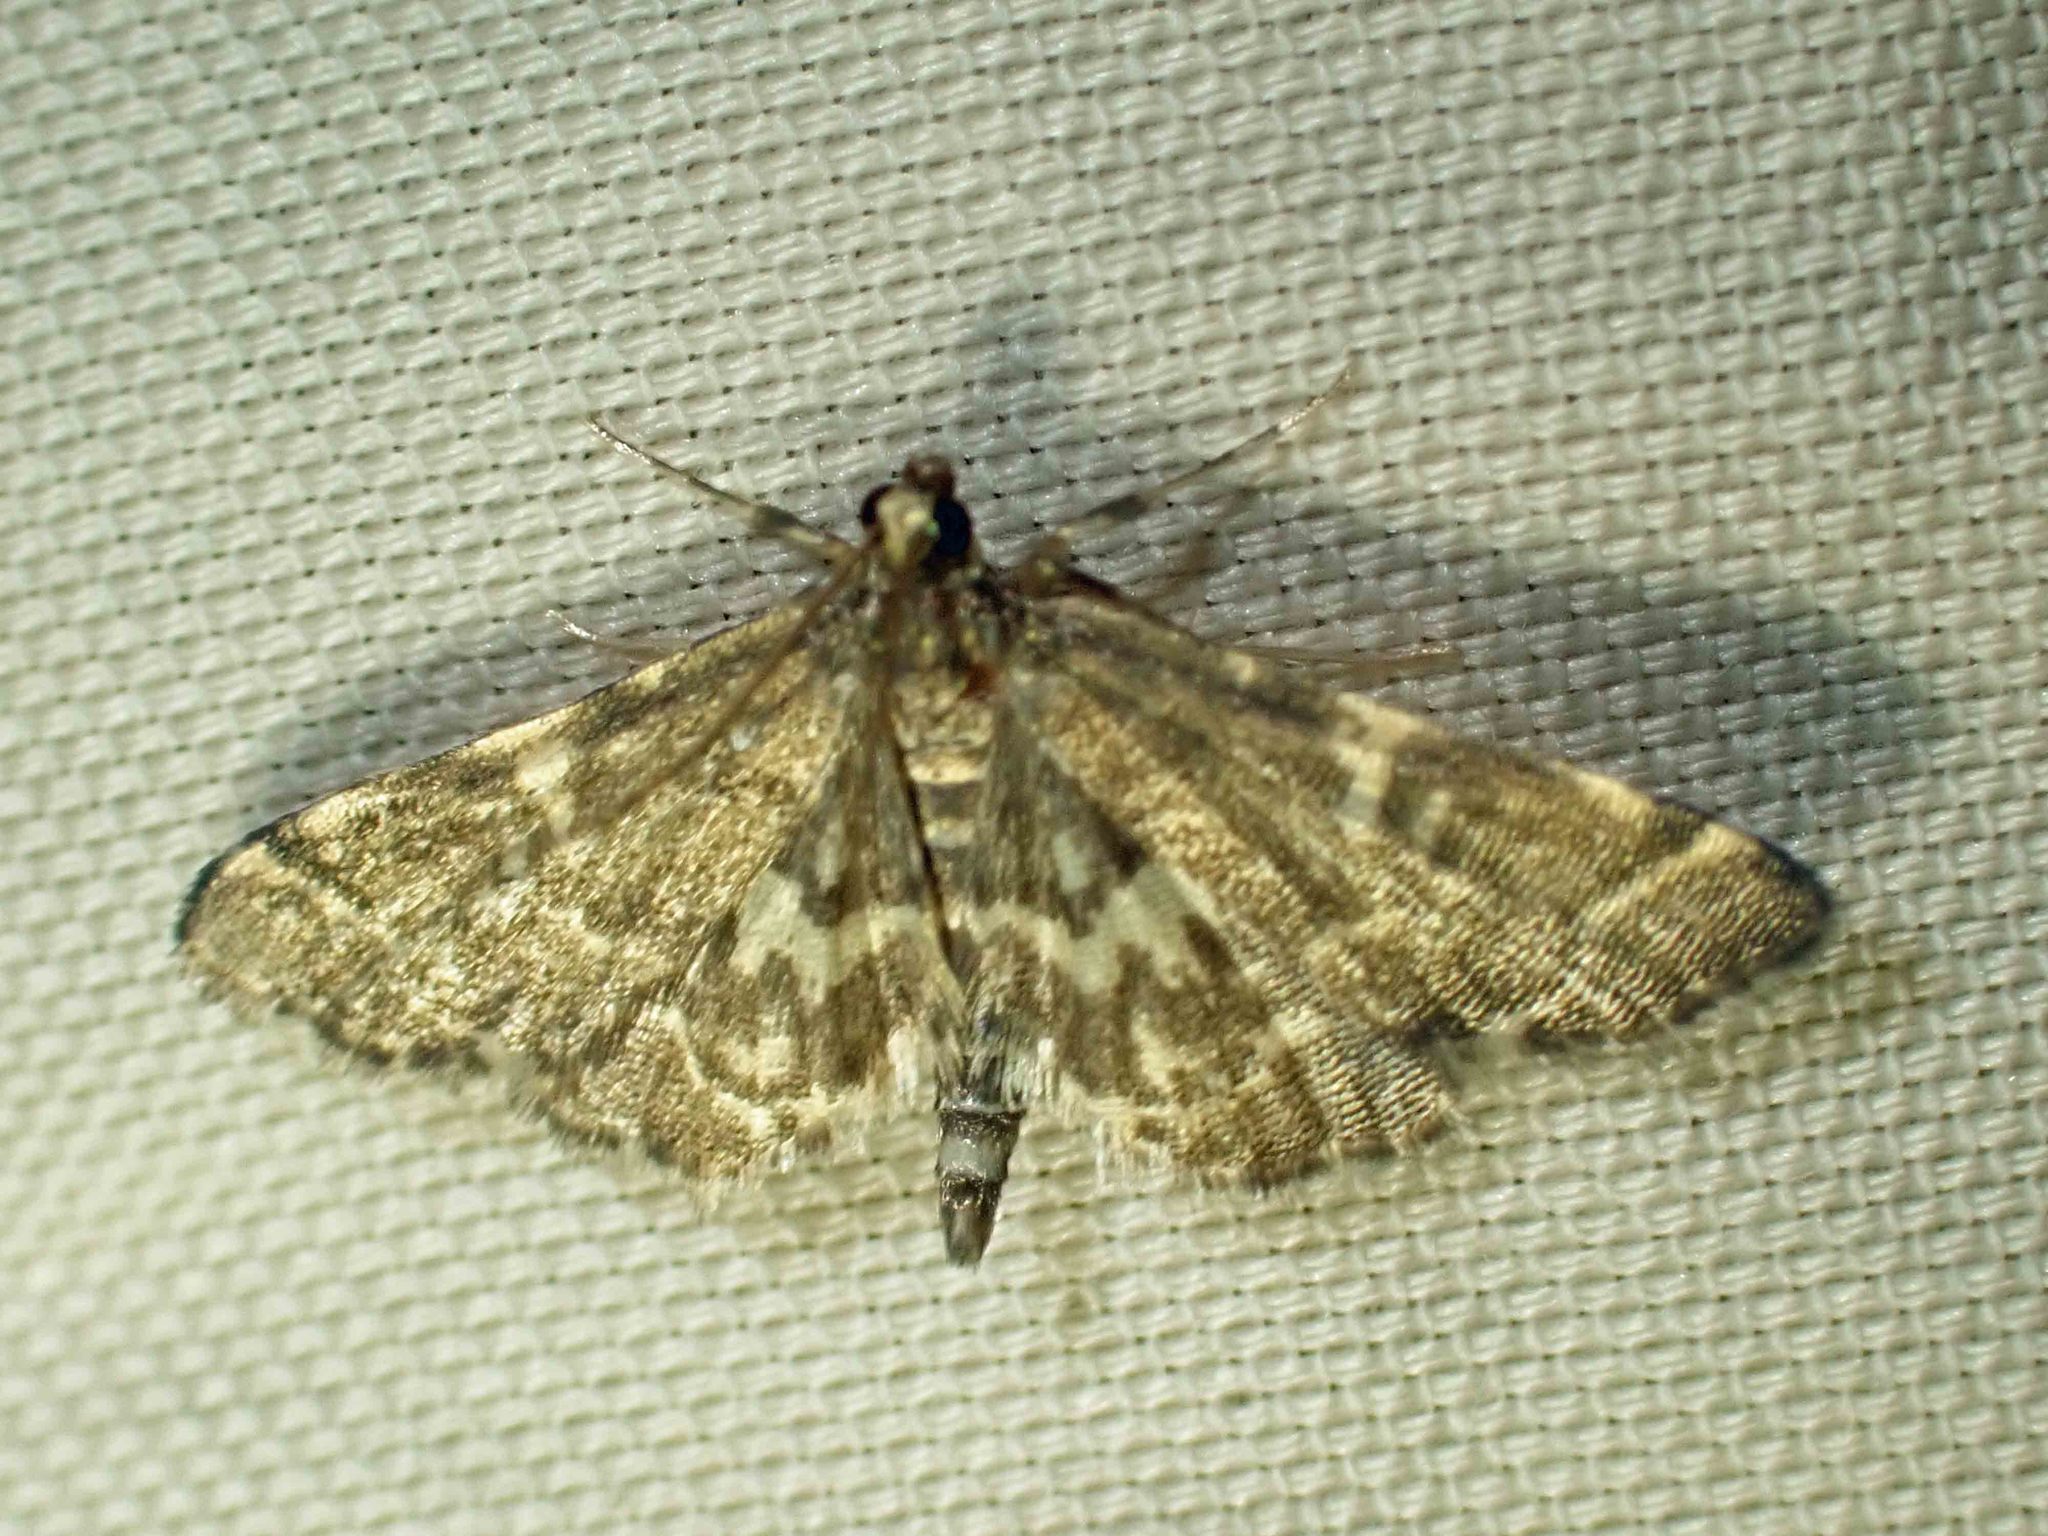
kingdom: Animalia
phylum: Arthropoda
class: Insecta
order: Lepidoptera
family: Crambidae
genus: Anageshna
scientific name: Anageshna primordialis
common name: Yellow-spotted webworm moth
